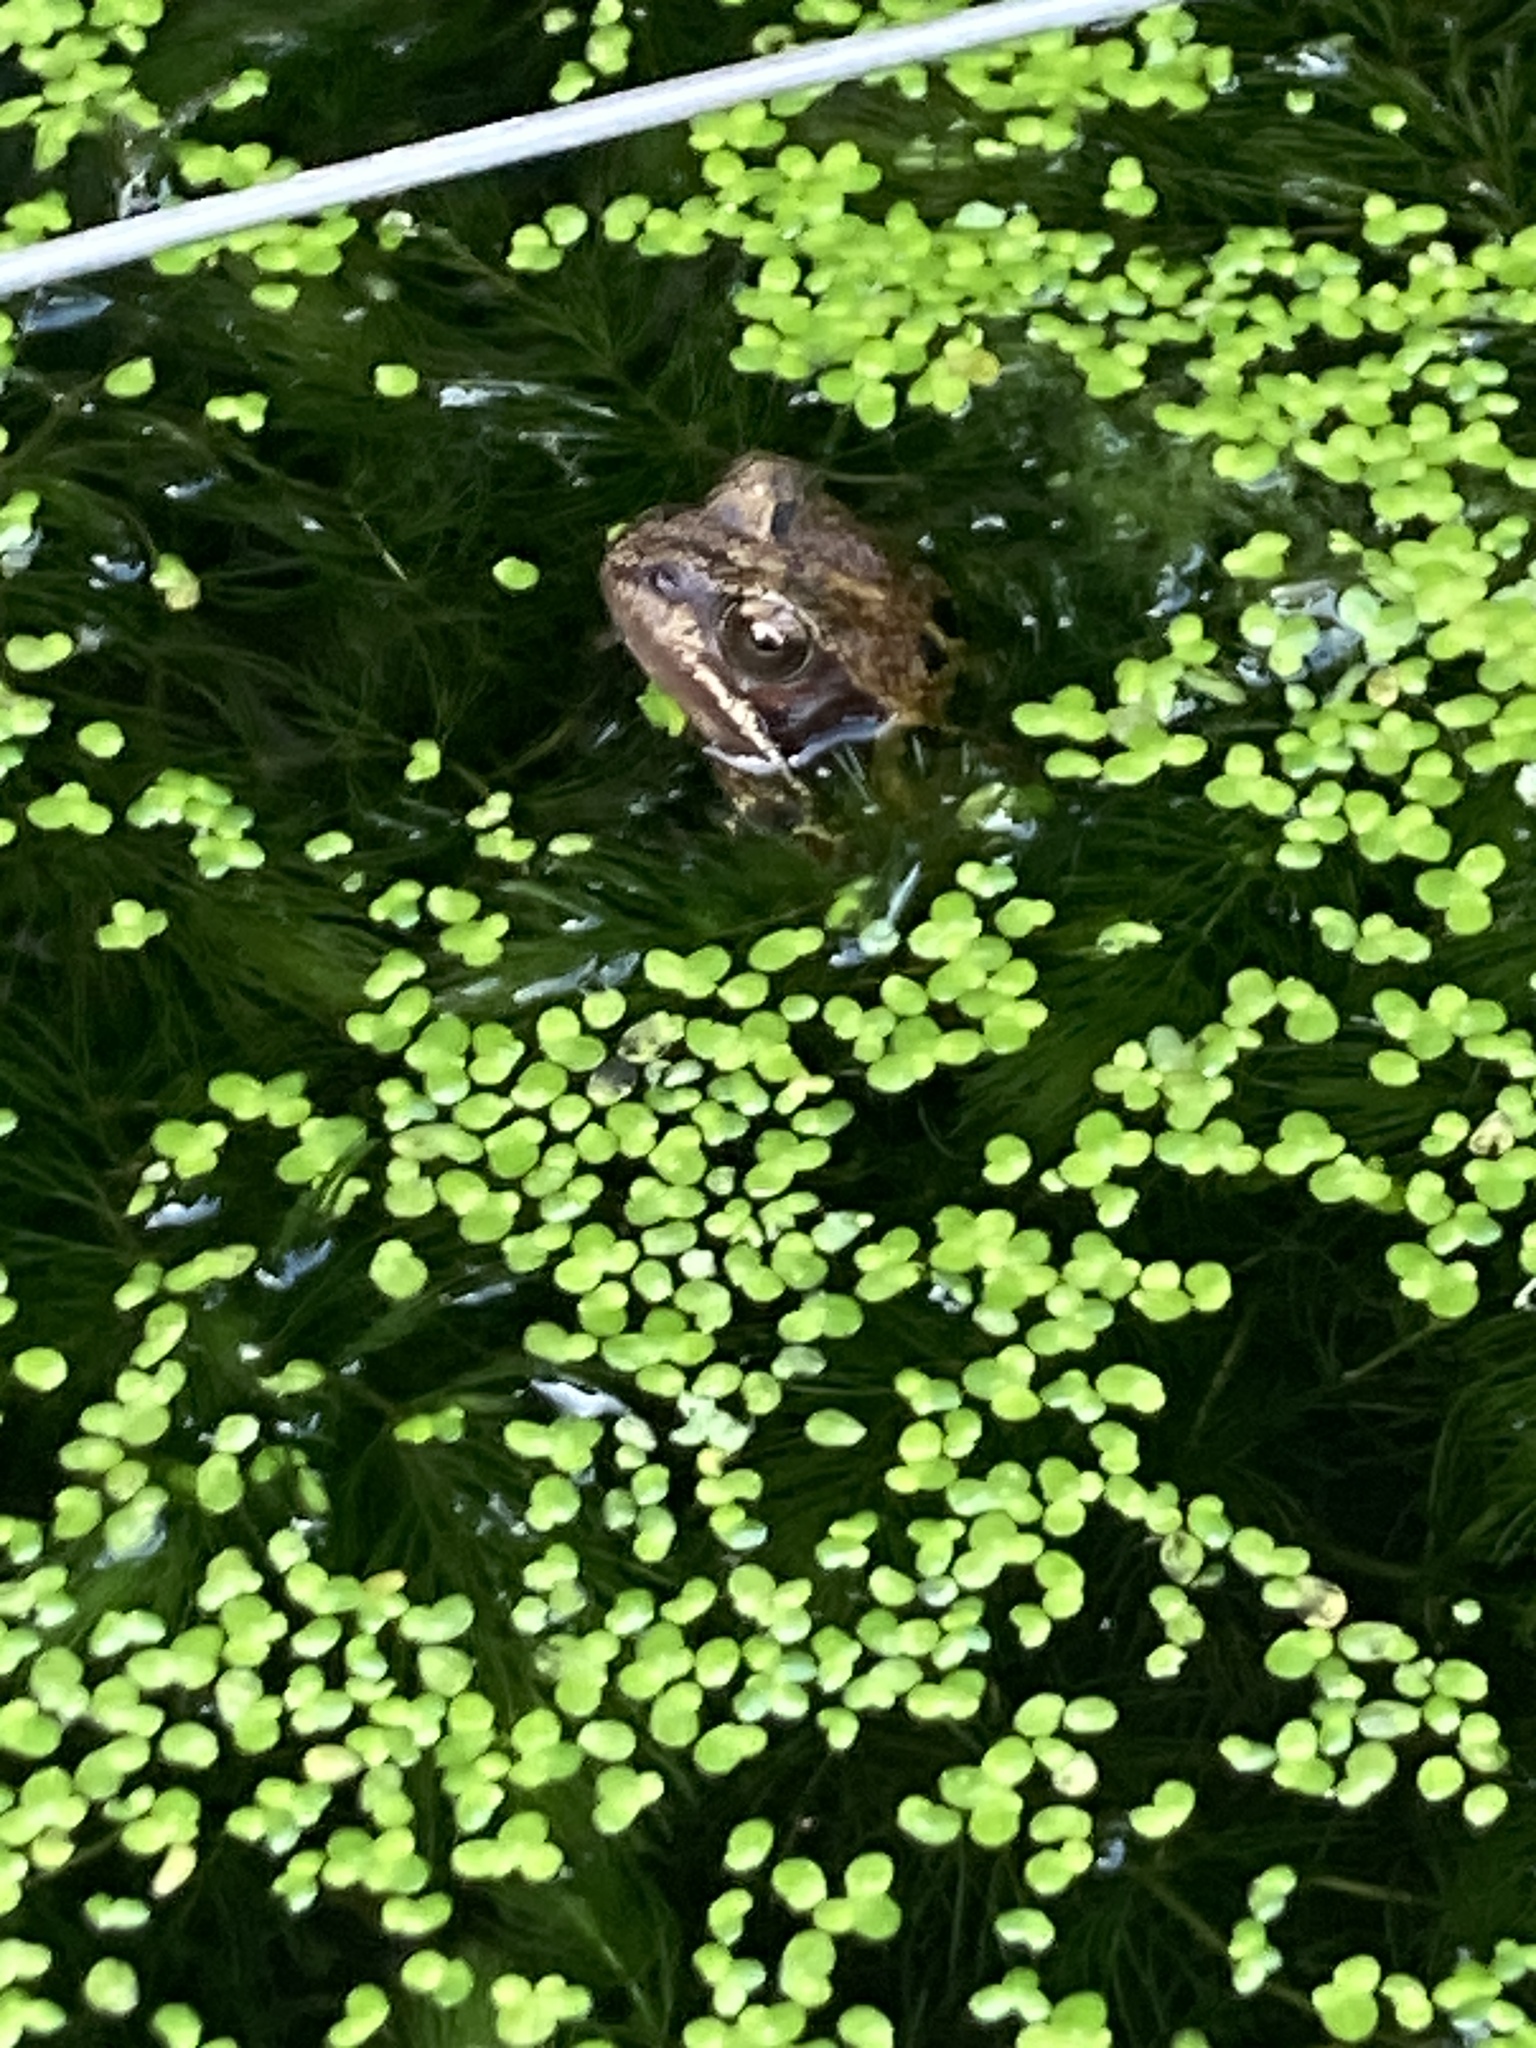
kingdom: Animalia
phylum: Chordata
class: Amphibia
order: Anura
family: Ranidae
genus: Rana
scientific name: Rana temporaria
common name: Common frog
